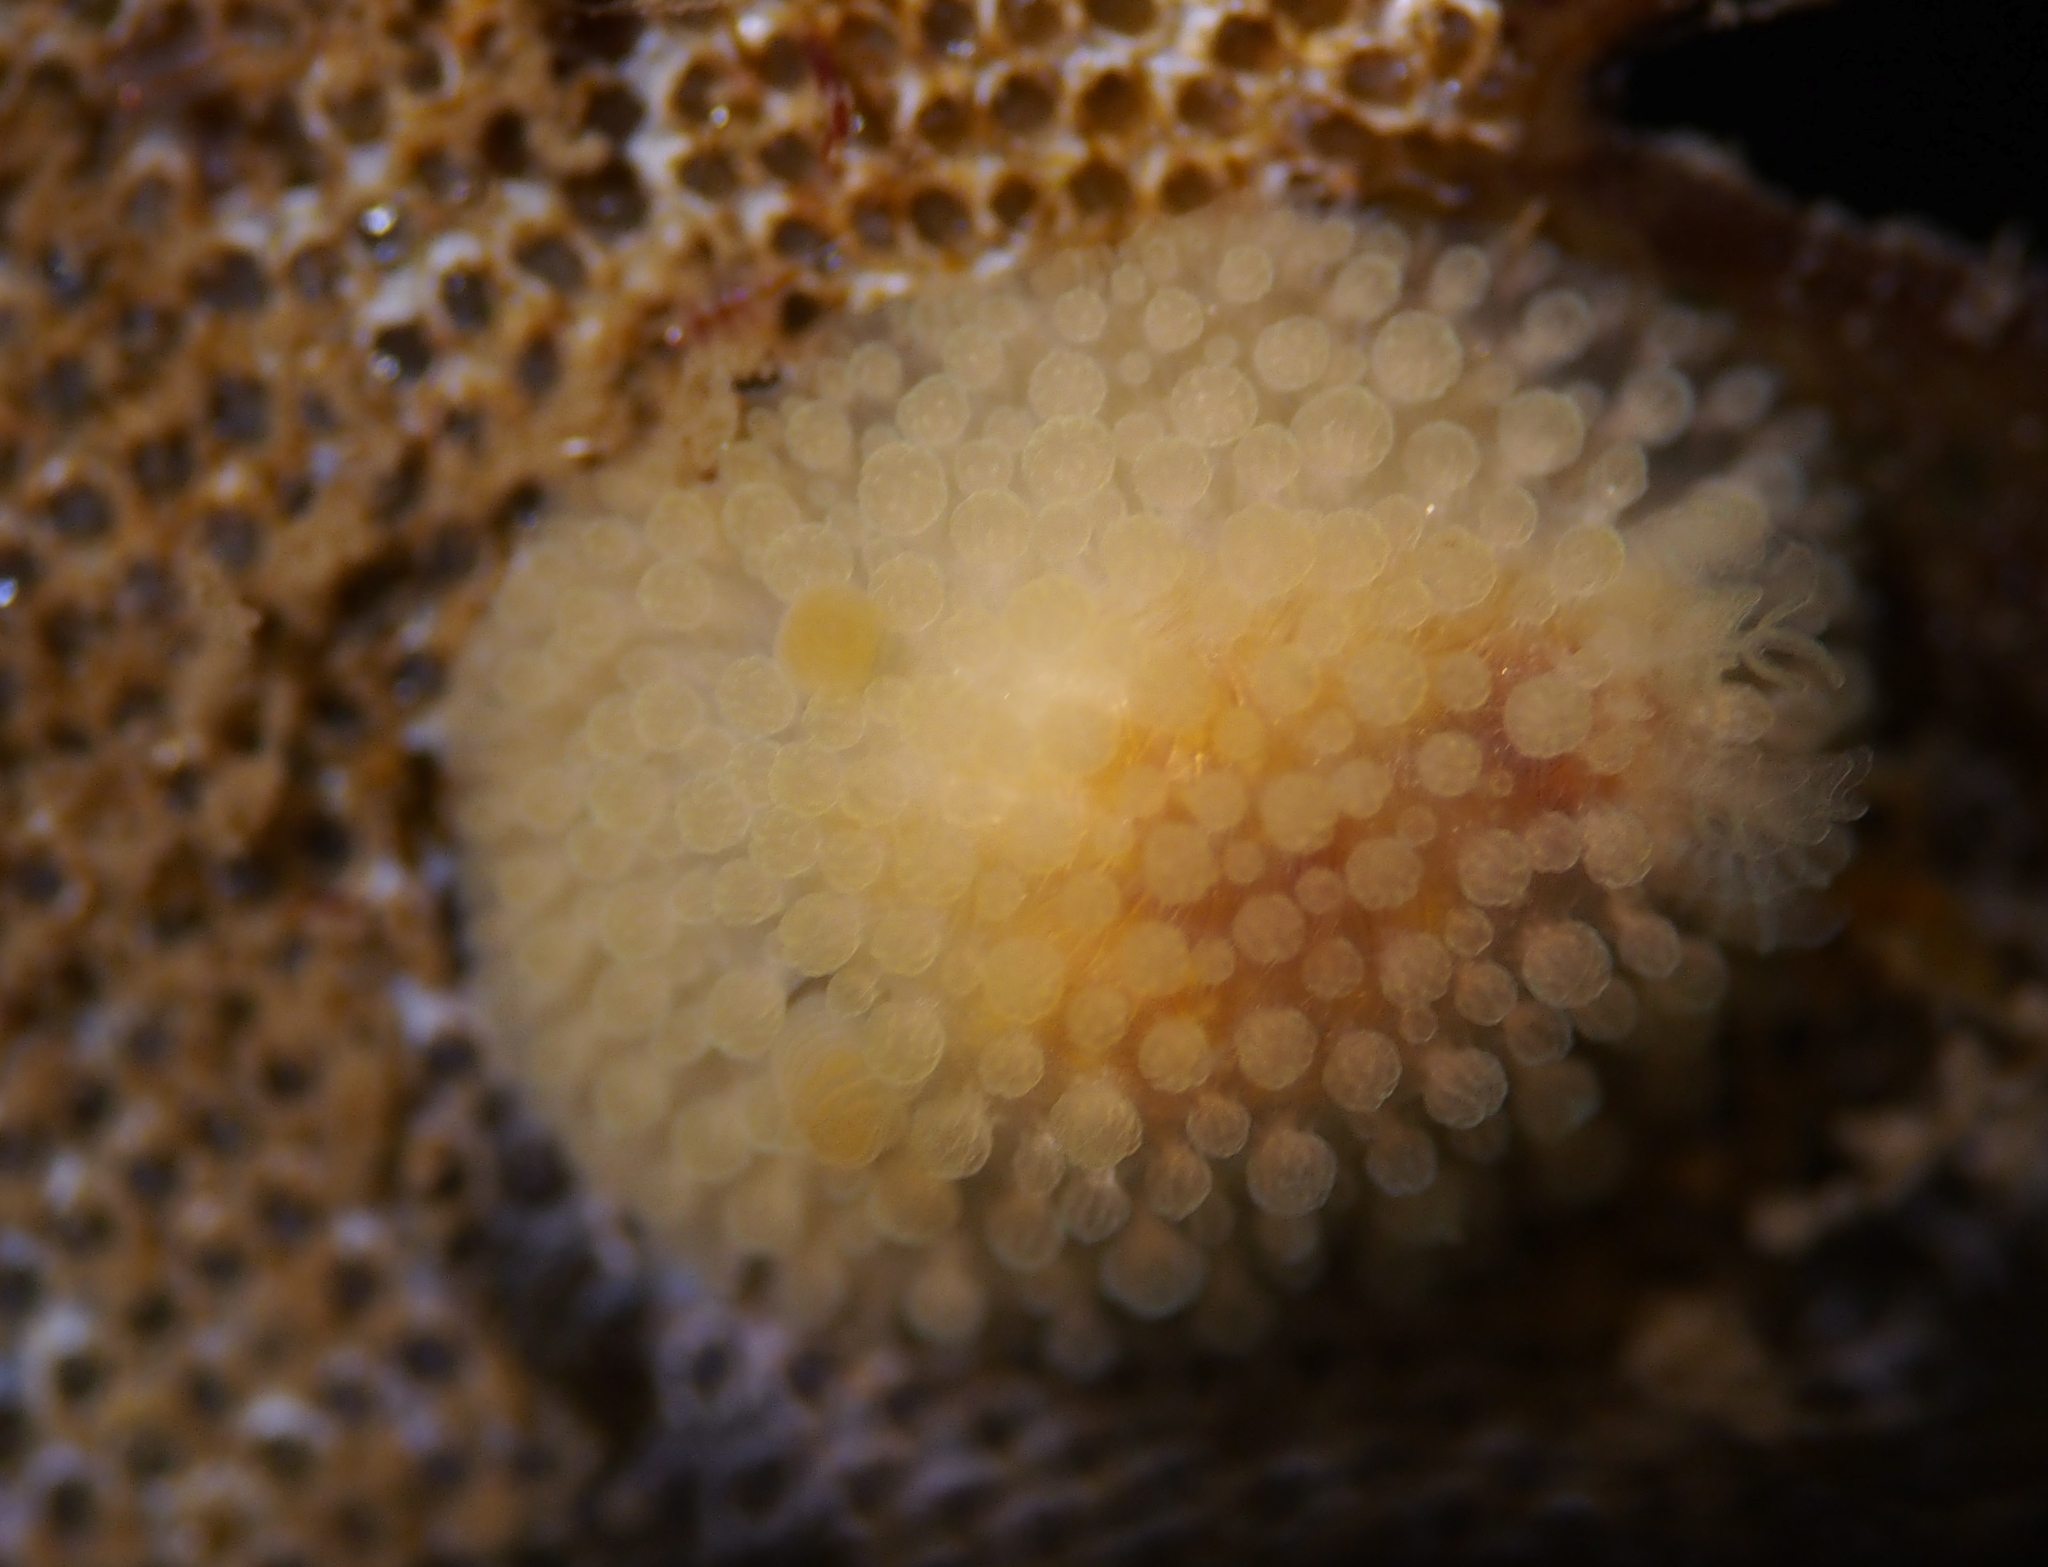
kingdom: Animalia
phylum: Mollusca
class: Gastropoda
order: Nudibranchia
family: Onchidorididae
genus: Onchidoris
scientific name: Onchidoris muricata
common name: Rough doris
